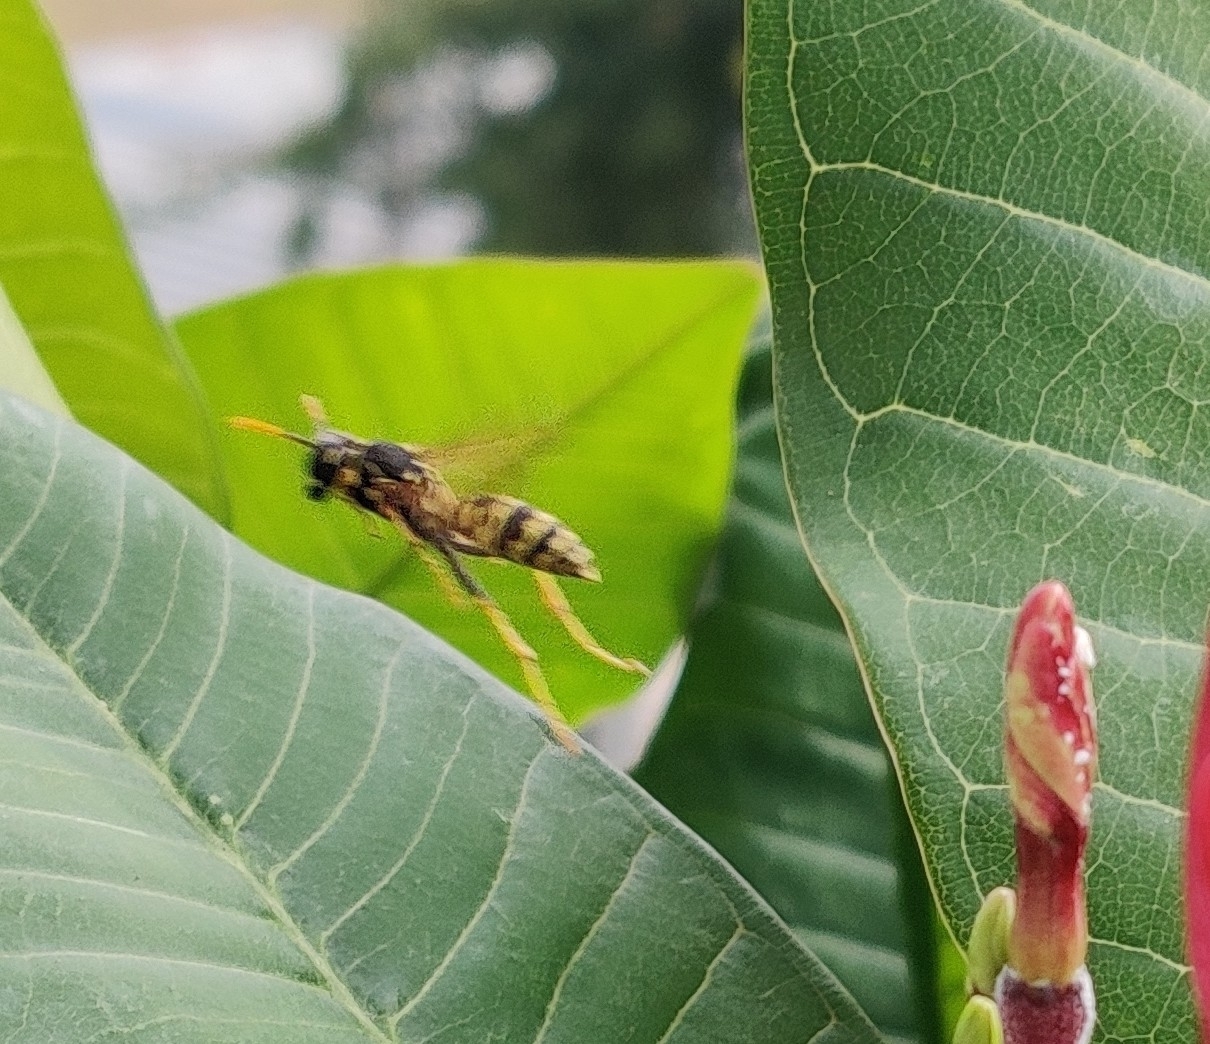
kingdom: Animalia
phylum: Arthropoda
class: Insecta
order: Hymenoptera
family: Eumenidae
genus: Polistes
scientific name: Polistes dominula
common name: Paper wasp
